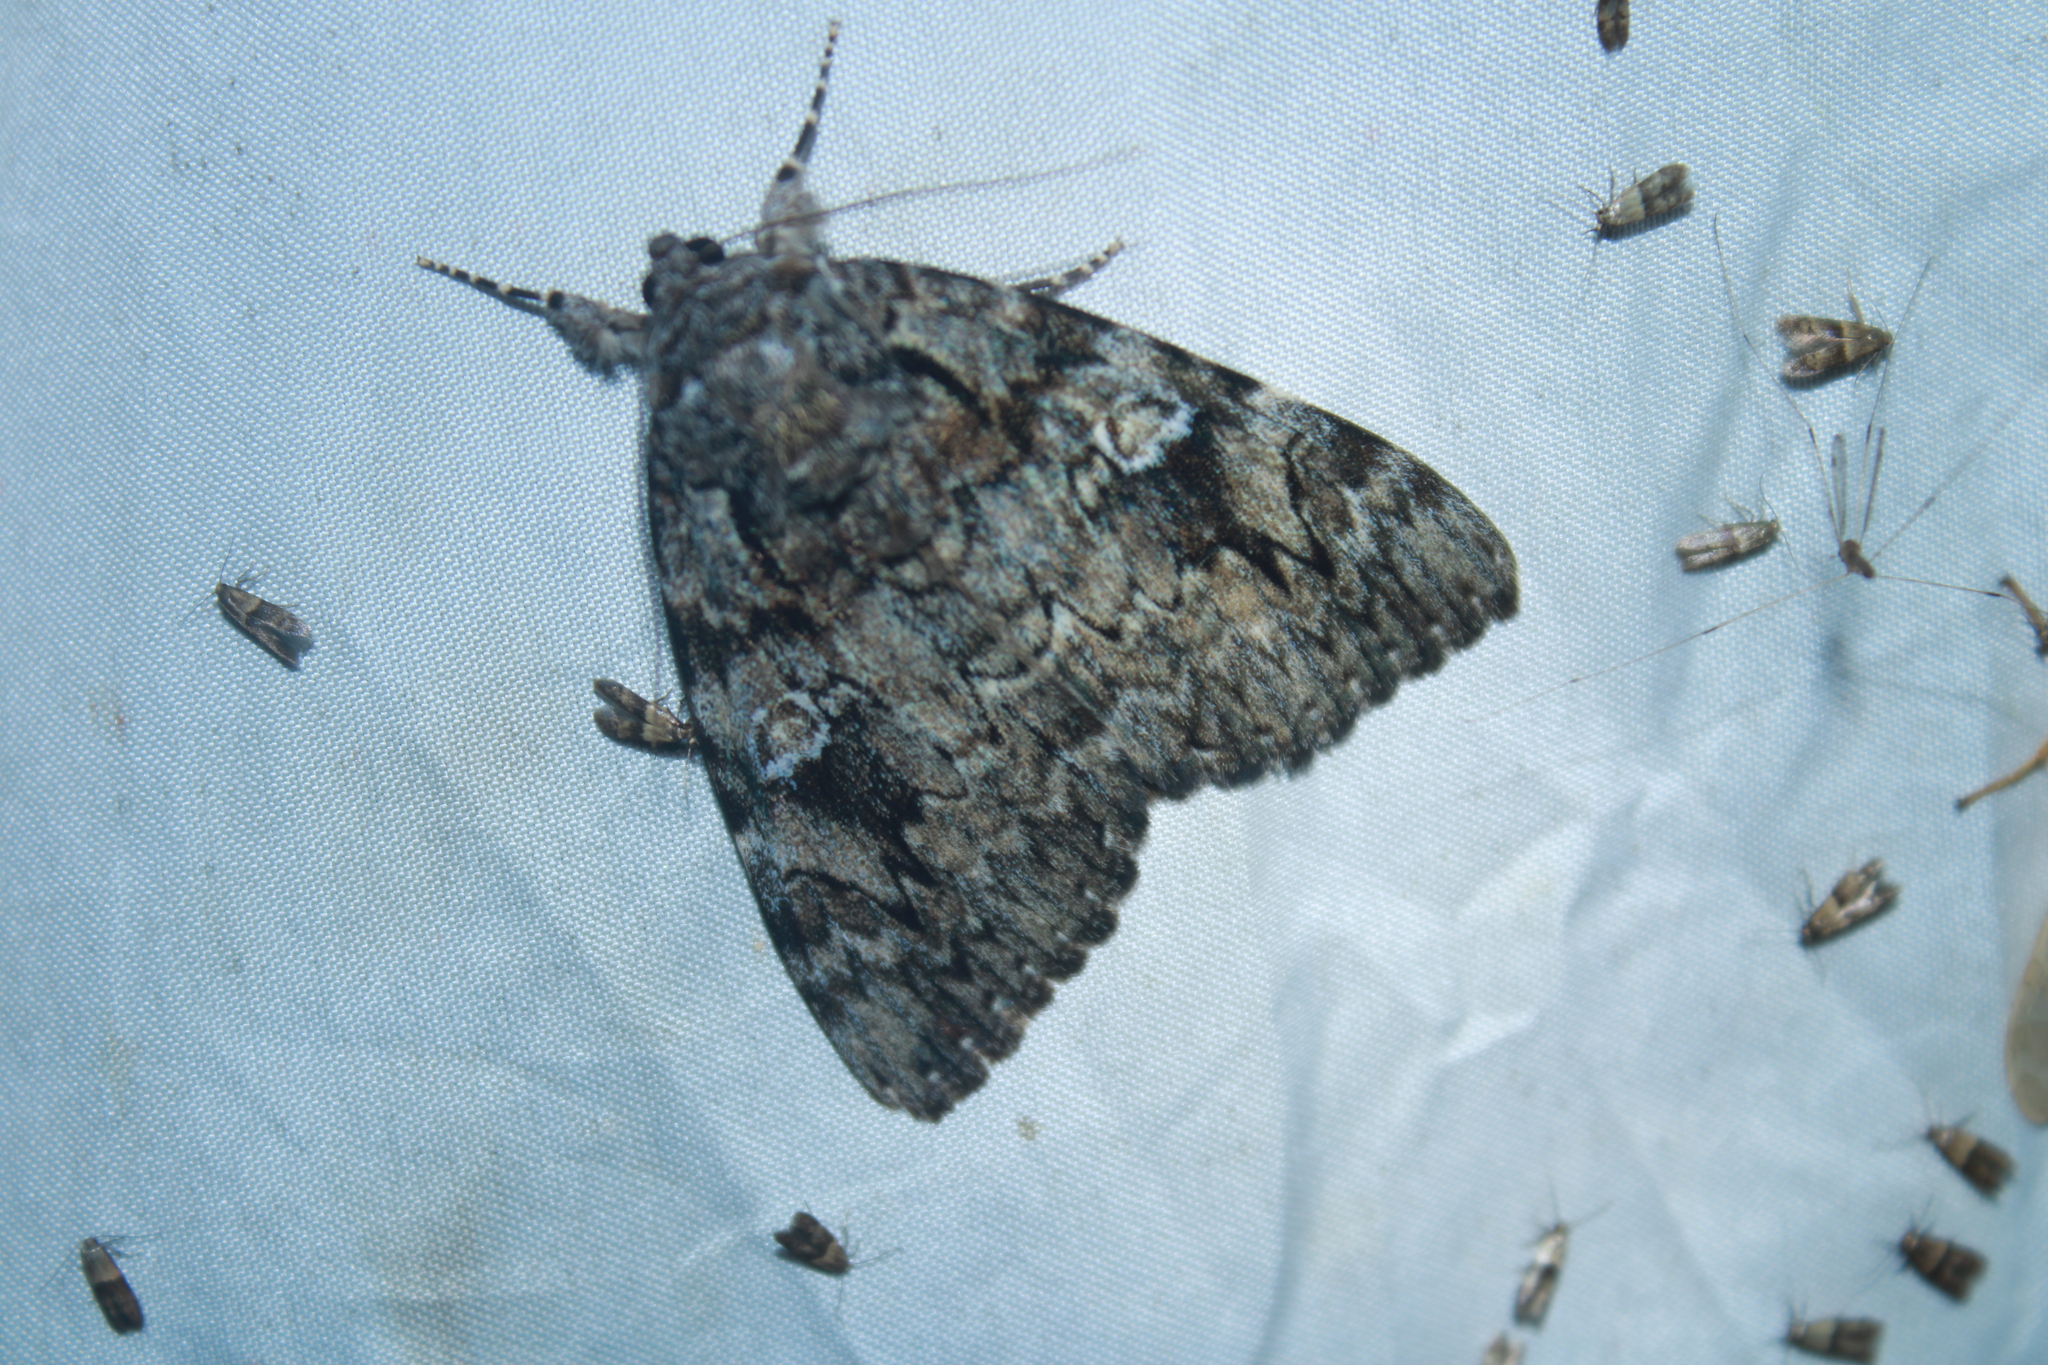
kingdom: Animalia
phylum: Arthropoda
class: Insecta
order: Lepidoptera
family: Erebidae
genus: Catocala
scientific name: Catocala ilia
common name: Ilia underwing
